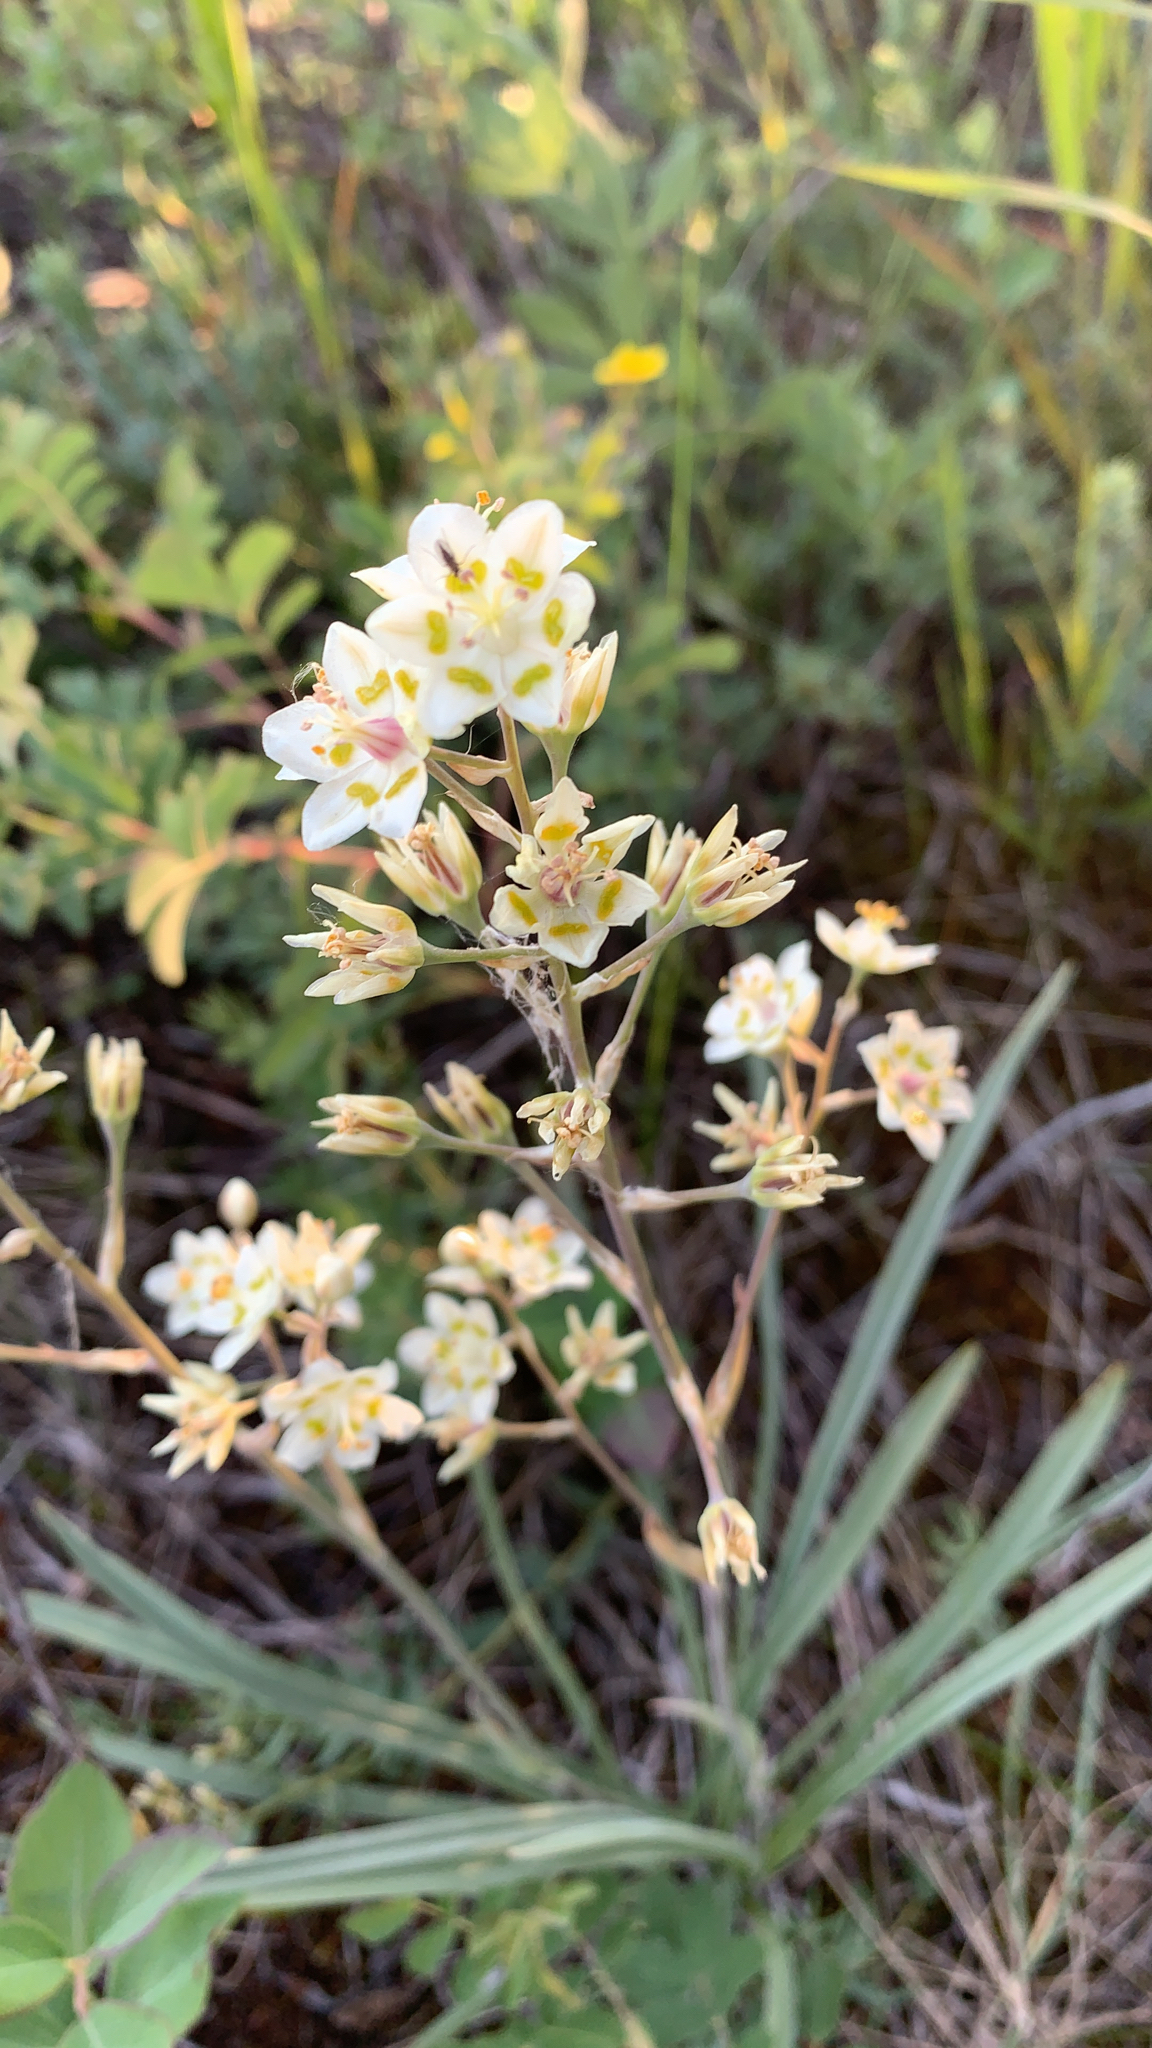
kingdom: Plantae
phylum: Tracheophyta
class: Liliopsida
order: Liliales
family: Melanthiaceae
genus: Anticlea
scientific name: Anticlea elegans
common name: Mountain death camas
